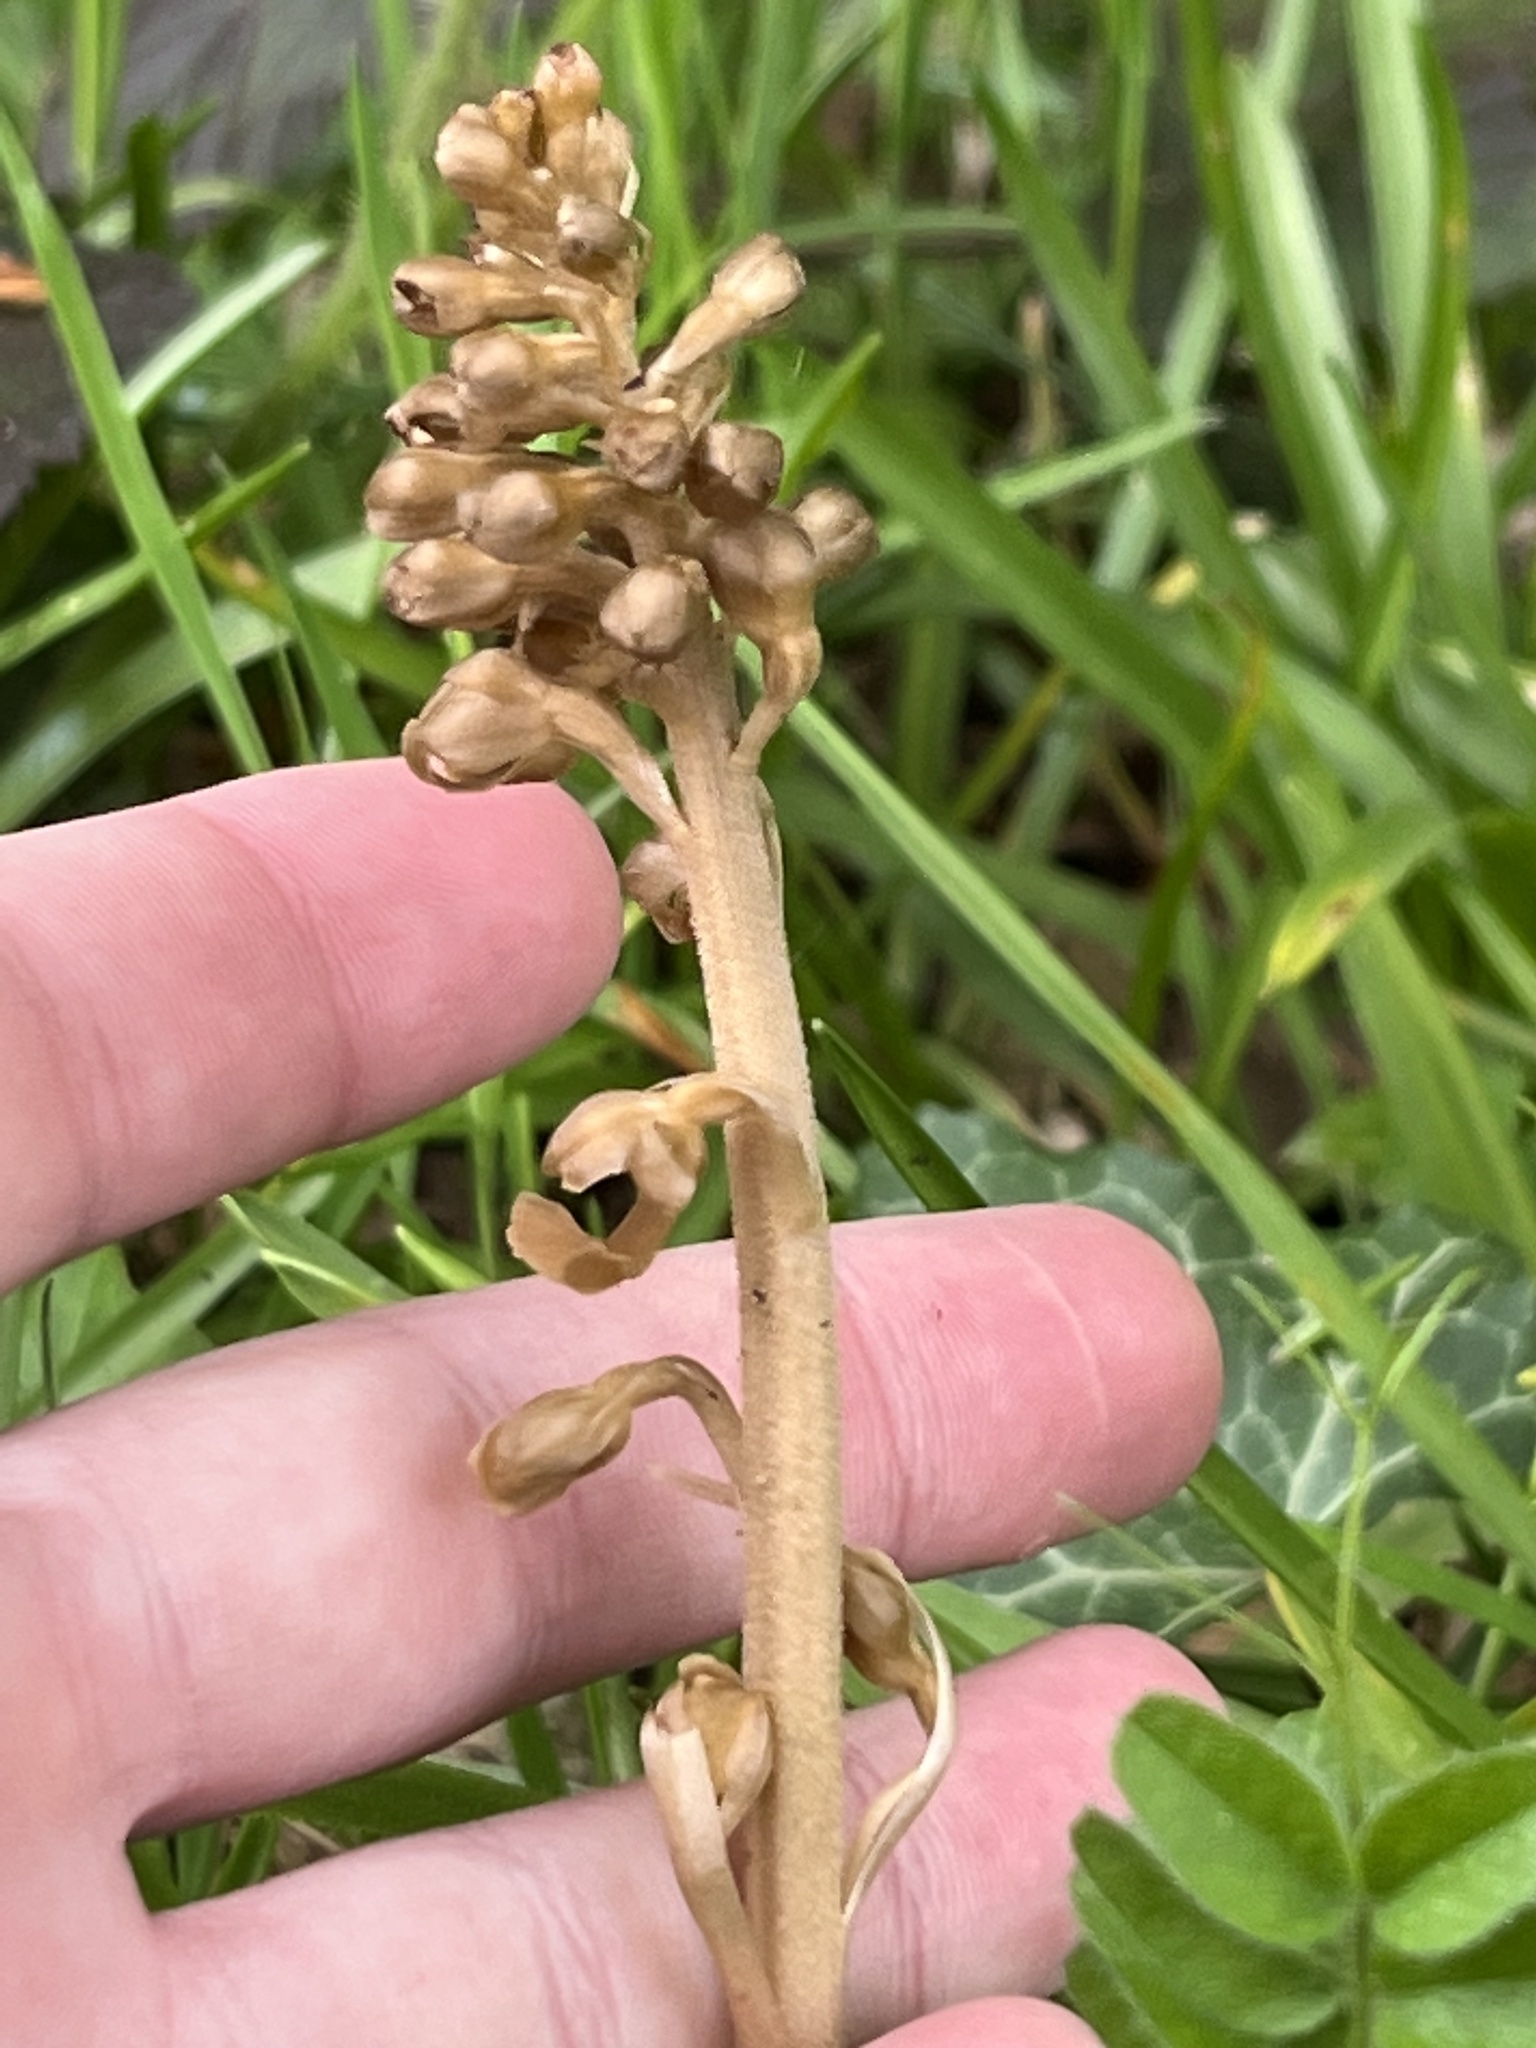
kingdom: Plantae
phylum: Tracheophyta
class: Liliopsida
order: Asparagales
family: Orchidaceae
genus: Neottia
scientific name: Neottia nidus-avis
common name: Bird's-nest orchid
